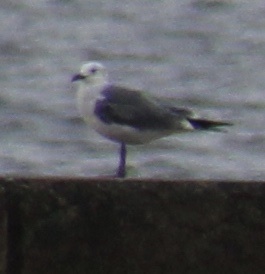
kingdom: Animalia
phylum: Chordata
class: Aves
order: Charadriiformes
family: Laridae
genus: Leucophaeus
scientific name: Leucophaeus atricilla
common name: Laughing gull
